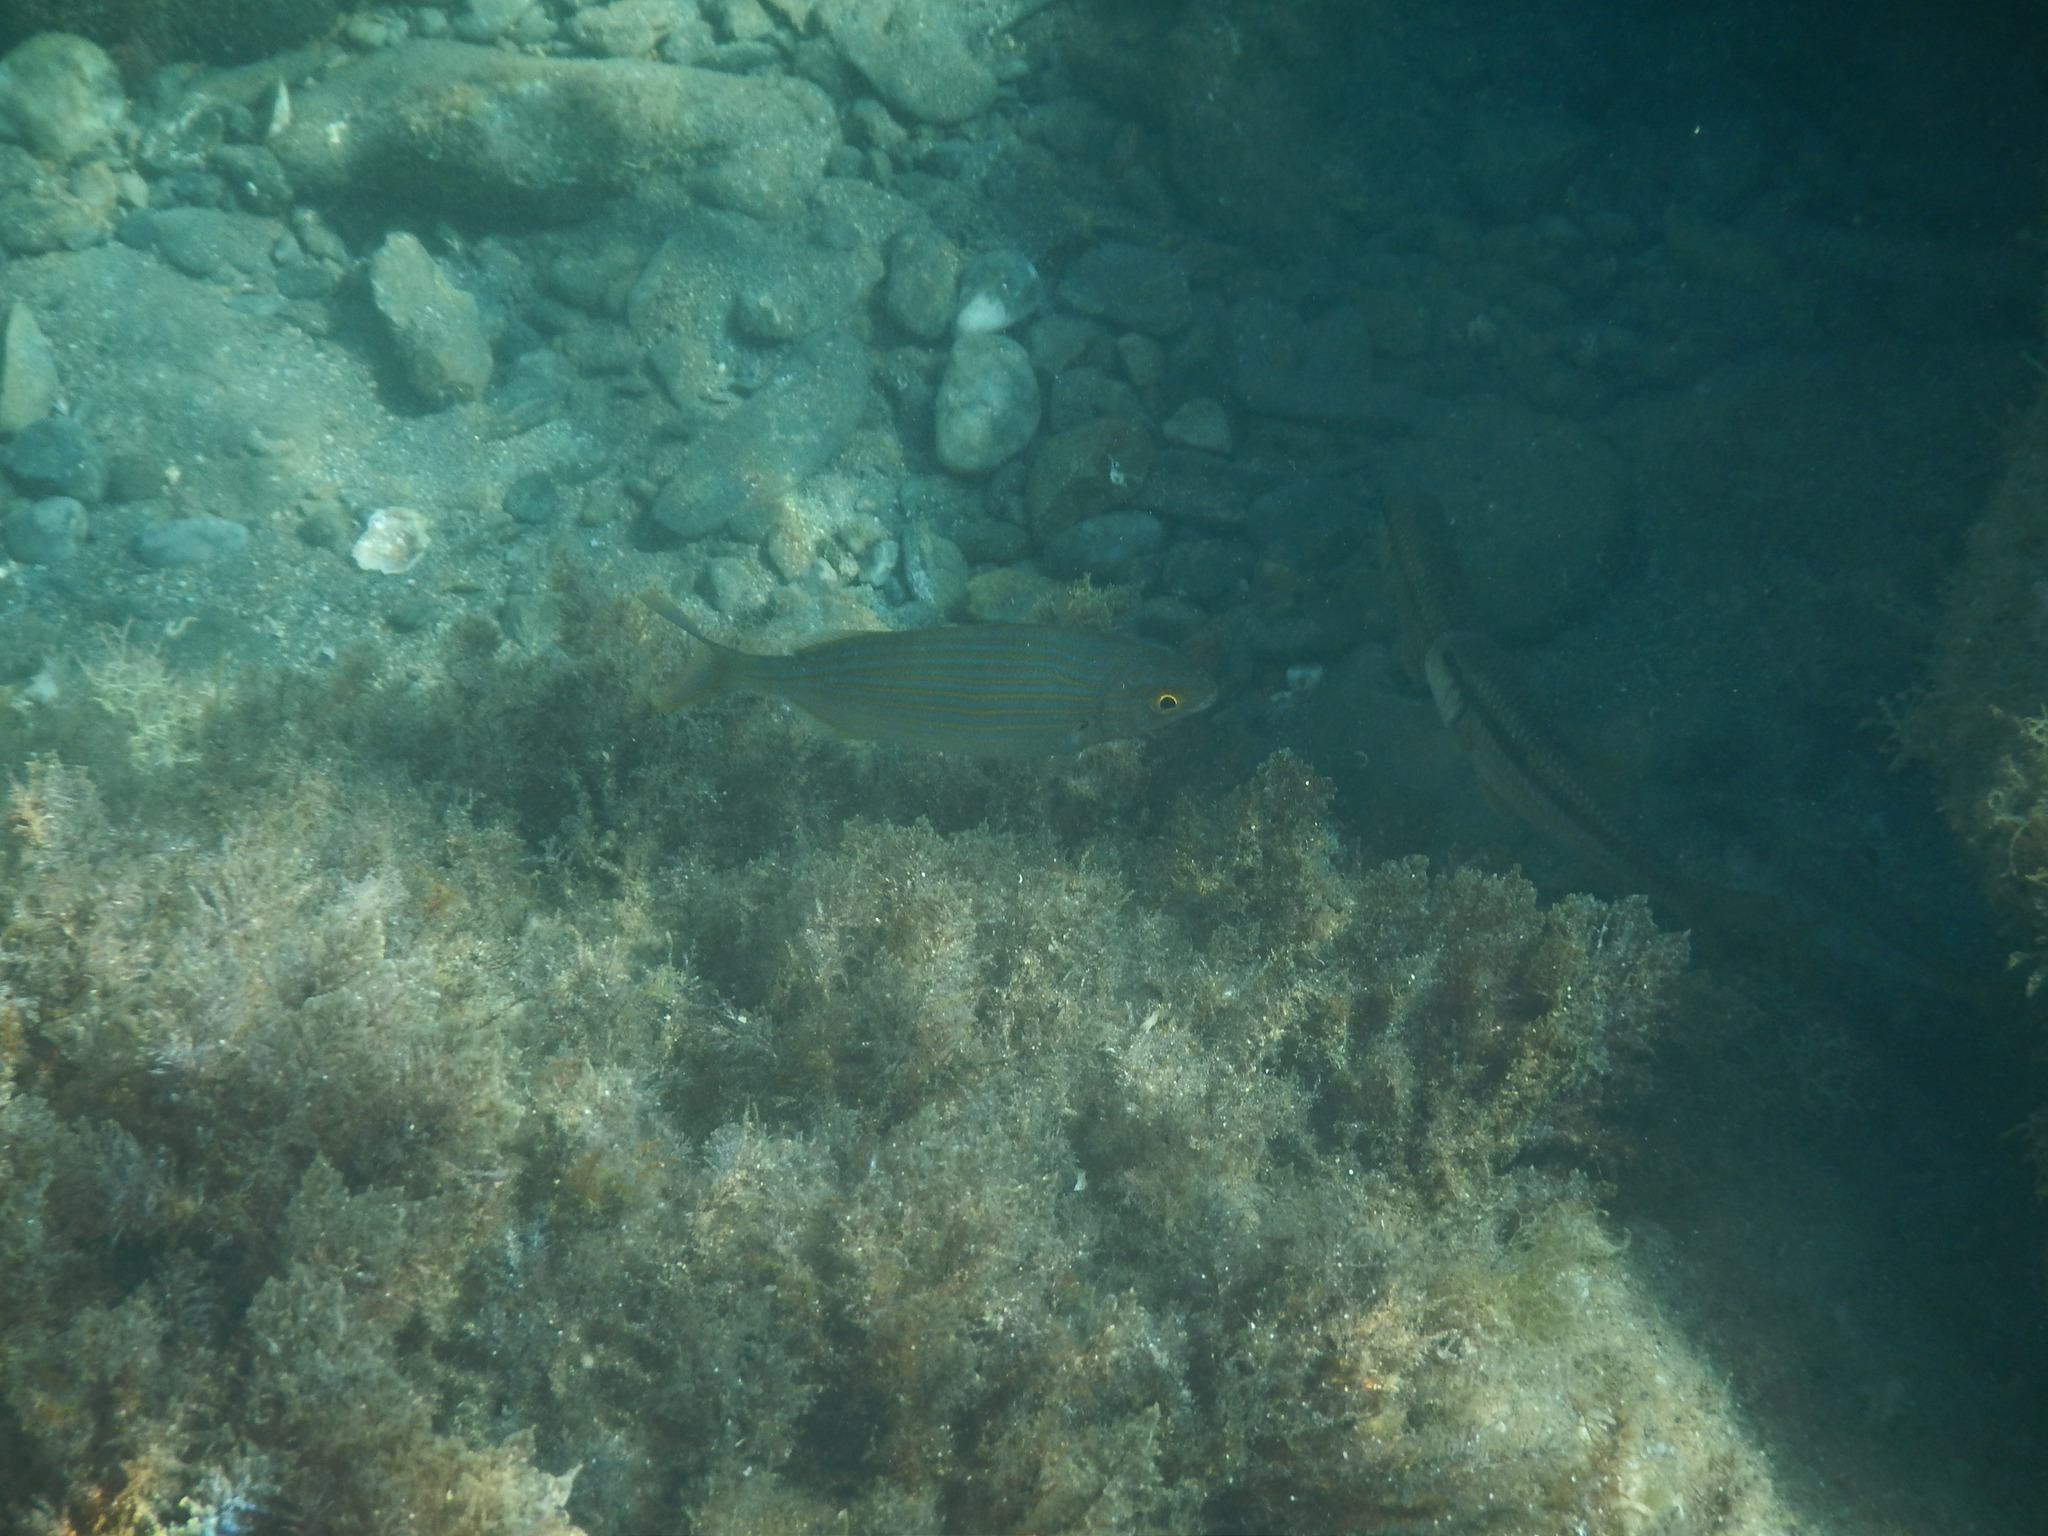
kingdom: Animalia
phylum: Chordata
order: Perciformes
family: Sparidae
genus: Sarpa
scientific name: Sarpa salpa
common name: Salema
